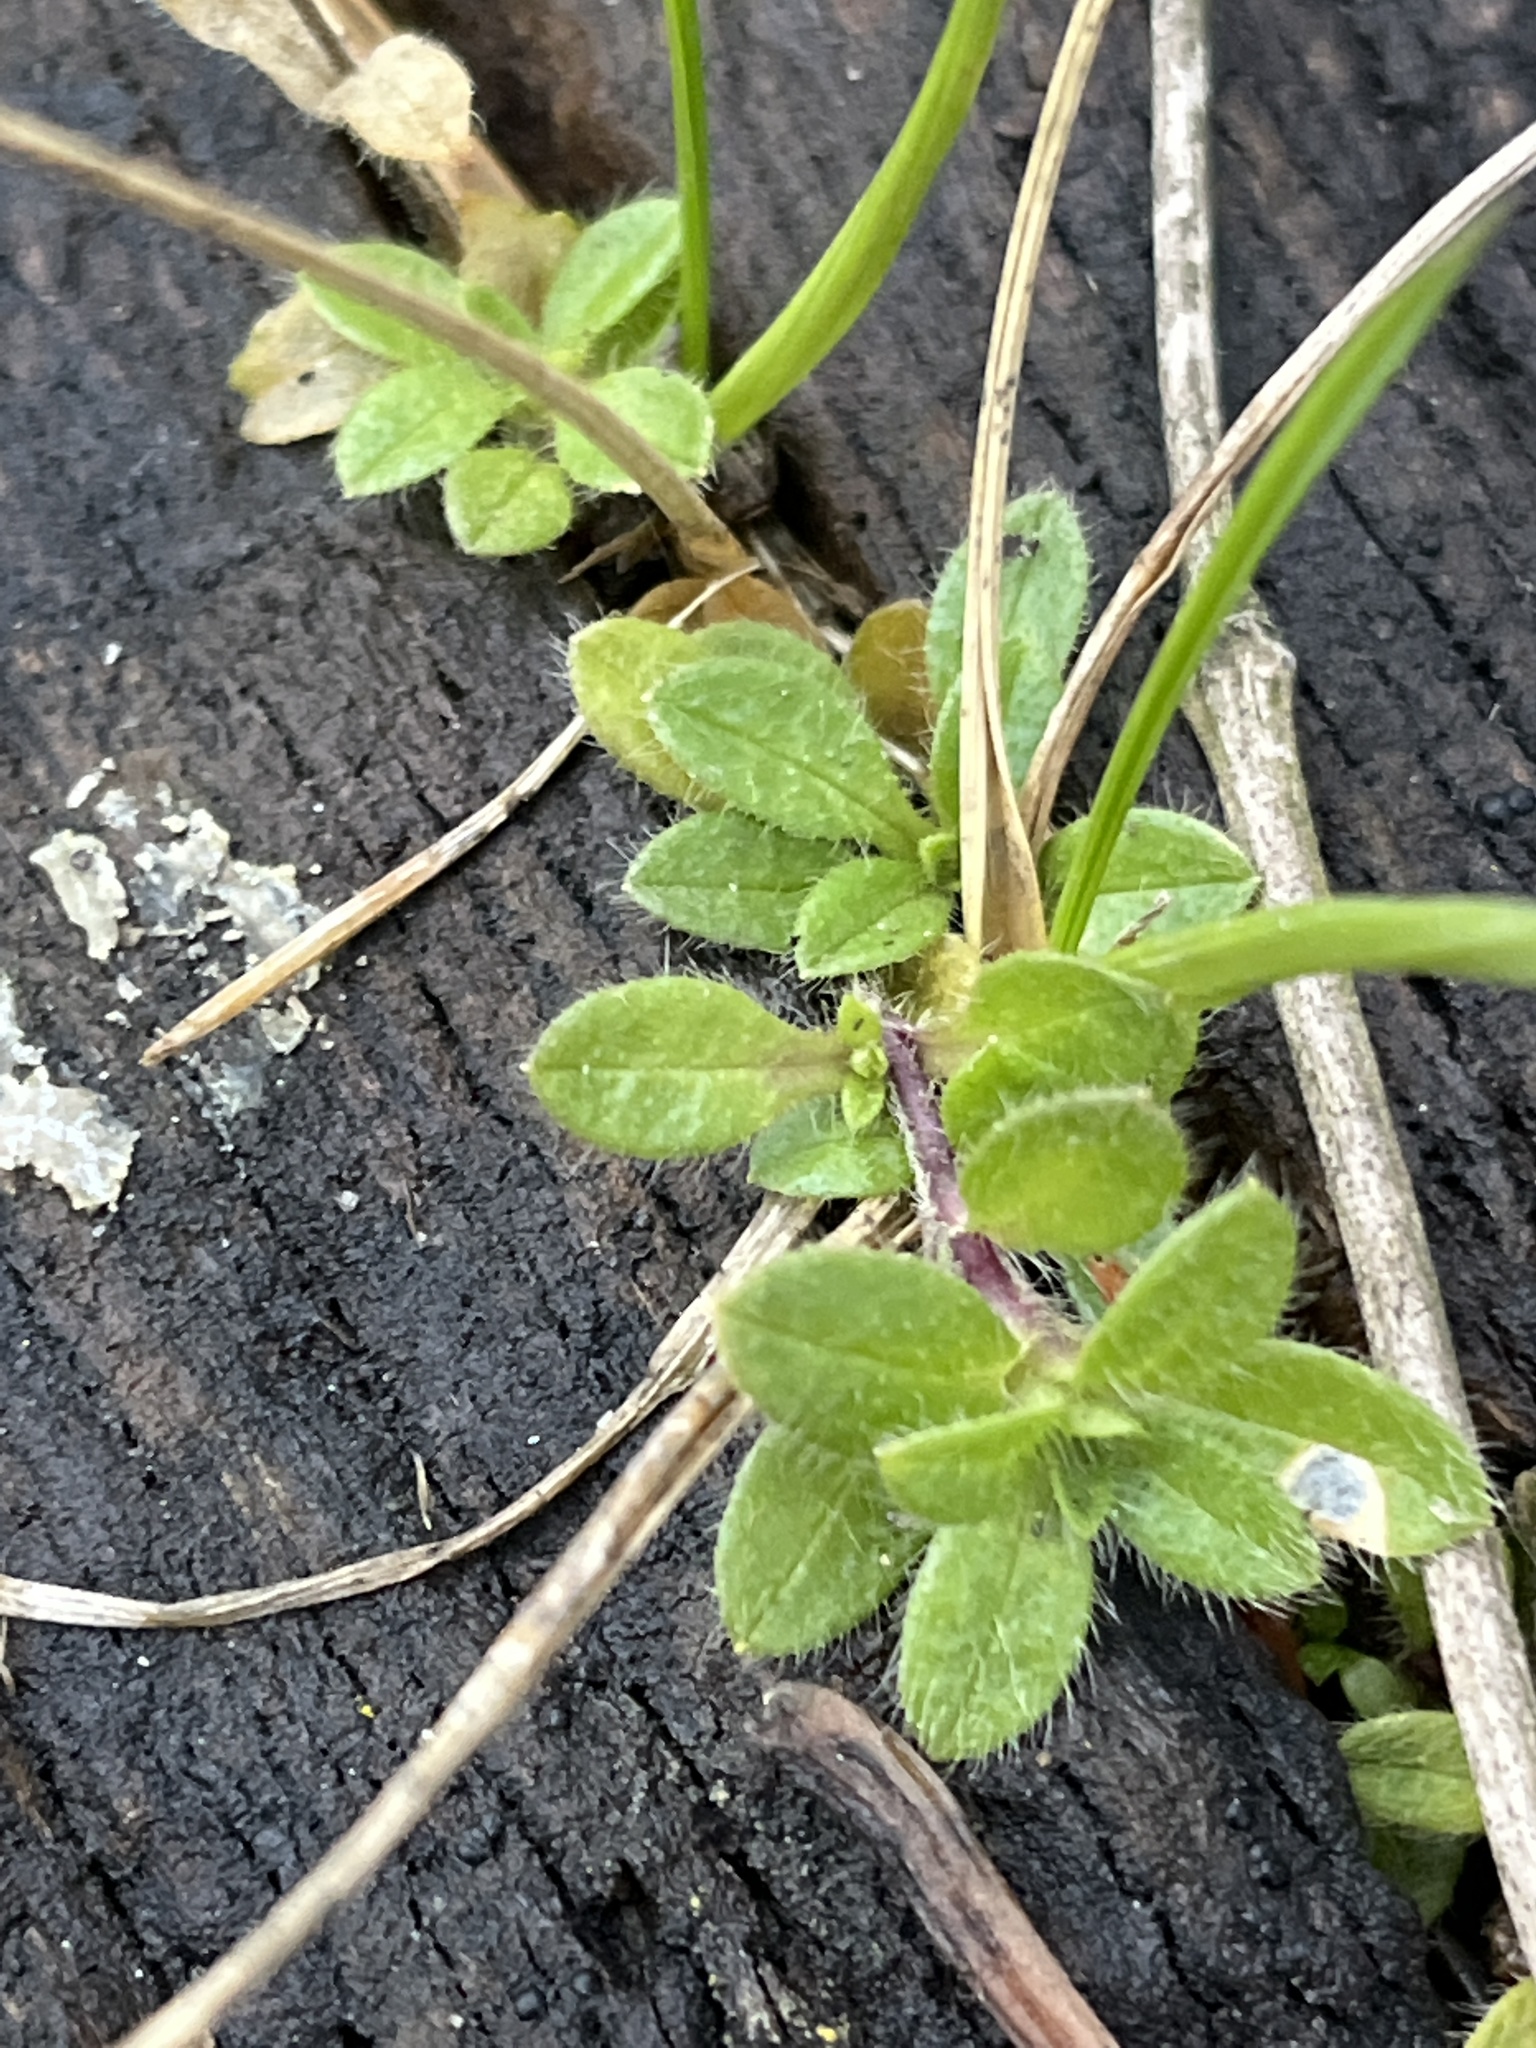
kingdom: Plantae
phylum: Tracheophyta
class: Magnoliopsida
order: Caryophyllales
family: Caryophyllaceae
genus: Cerastium
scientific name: Cerastium fontanum
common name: Common mouse-ear
